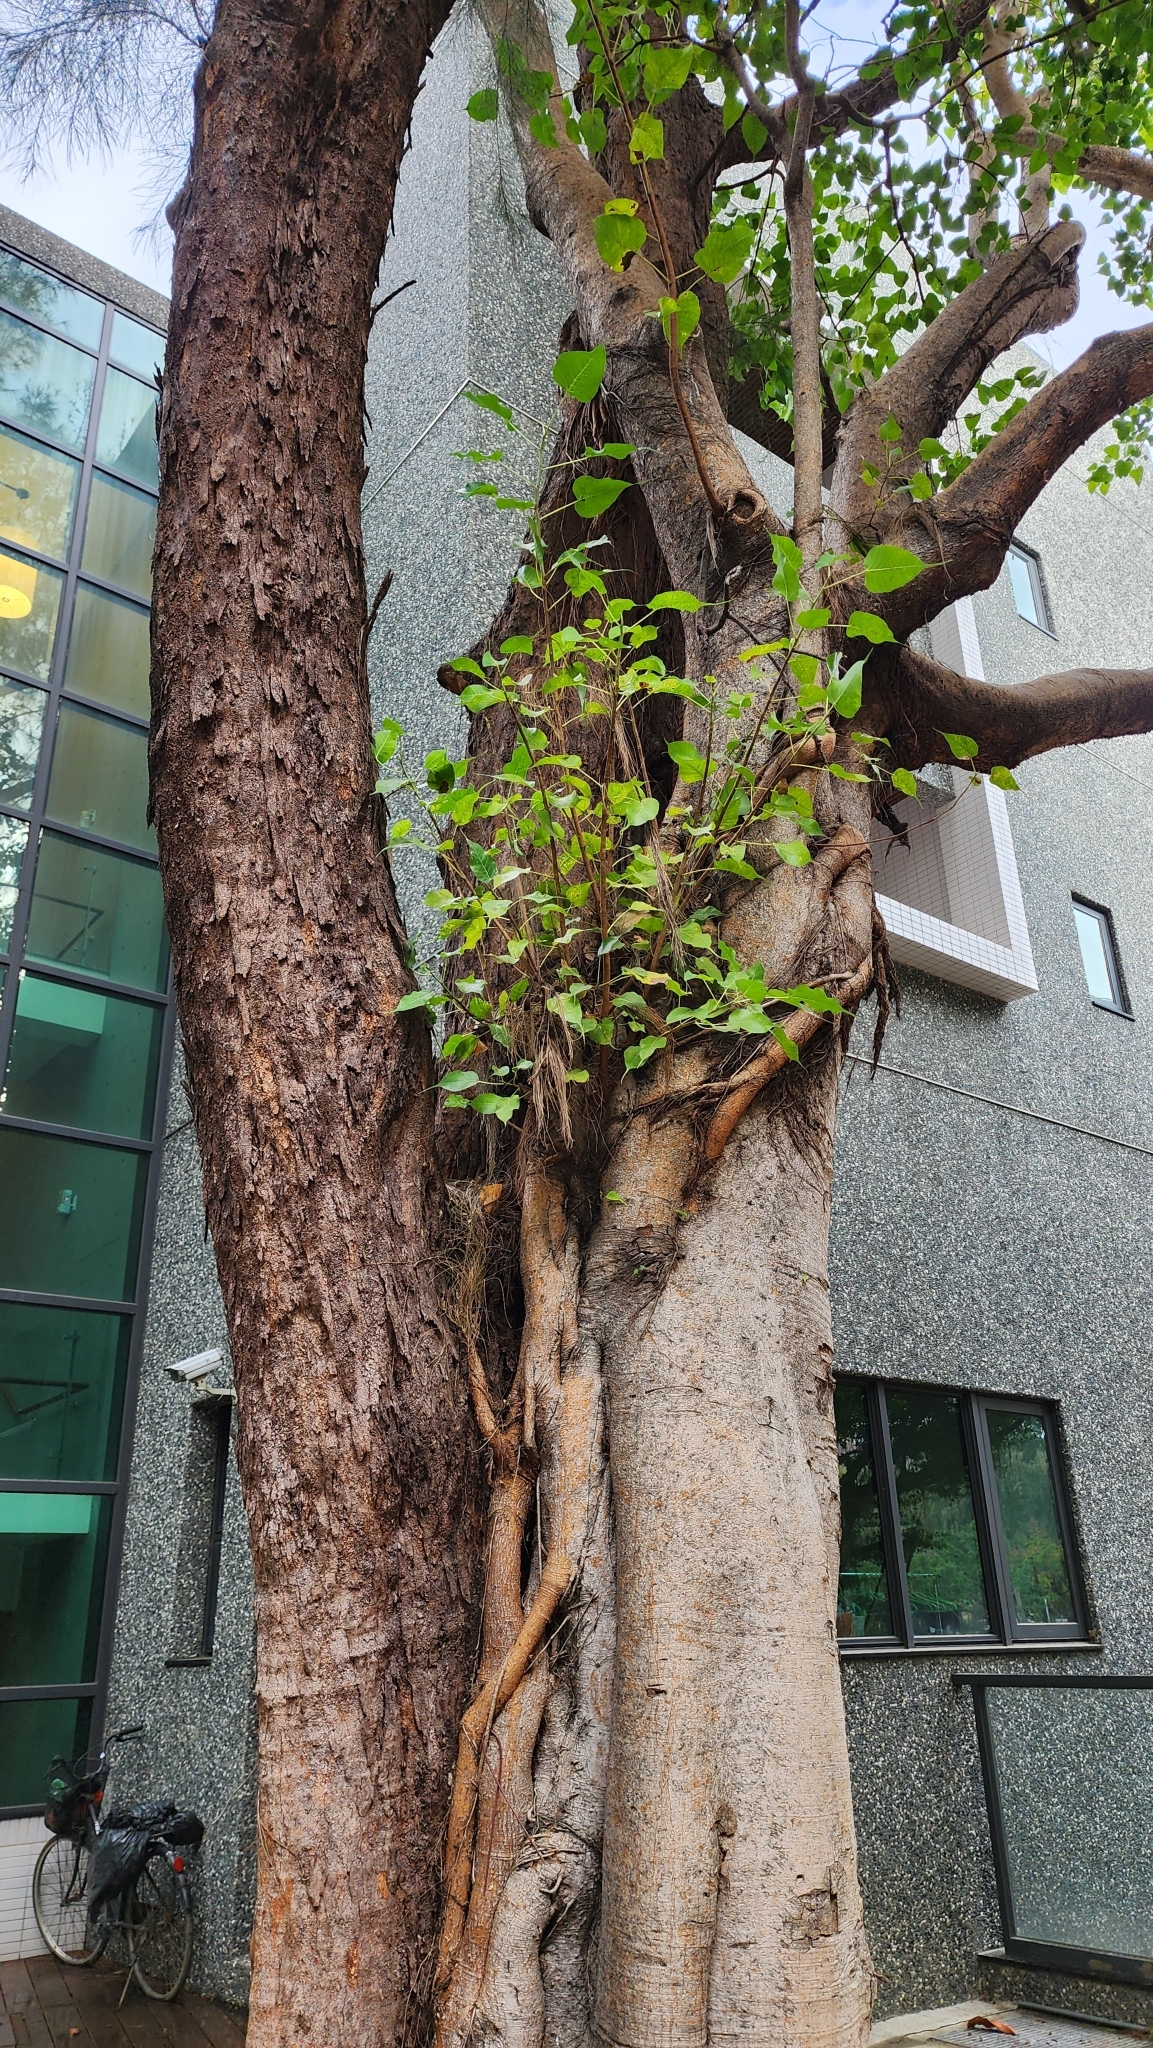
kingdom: Plantae
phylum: Tracheophyta
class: Magnoliopsida
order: Rosales
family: Moraceae
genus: Ficus
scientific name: Ficus religiosa
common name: Bodhi tree
